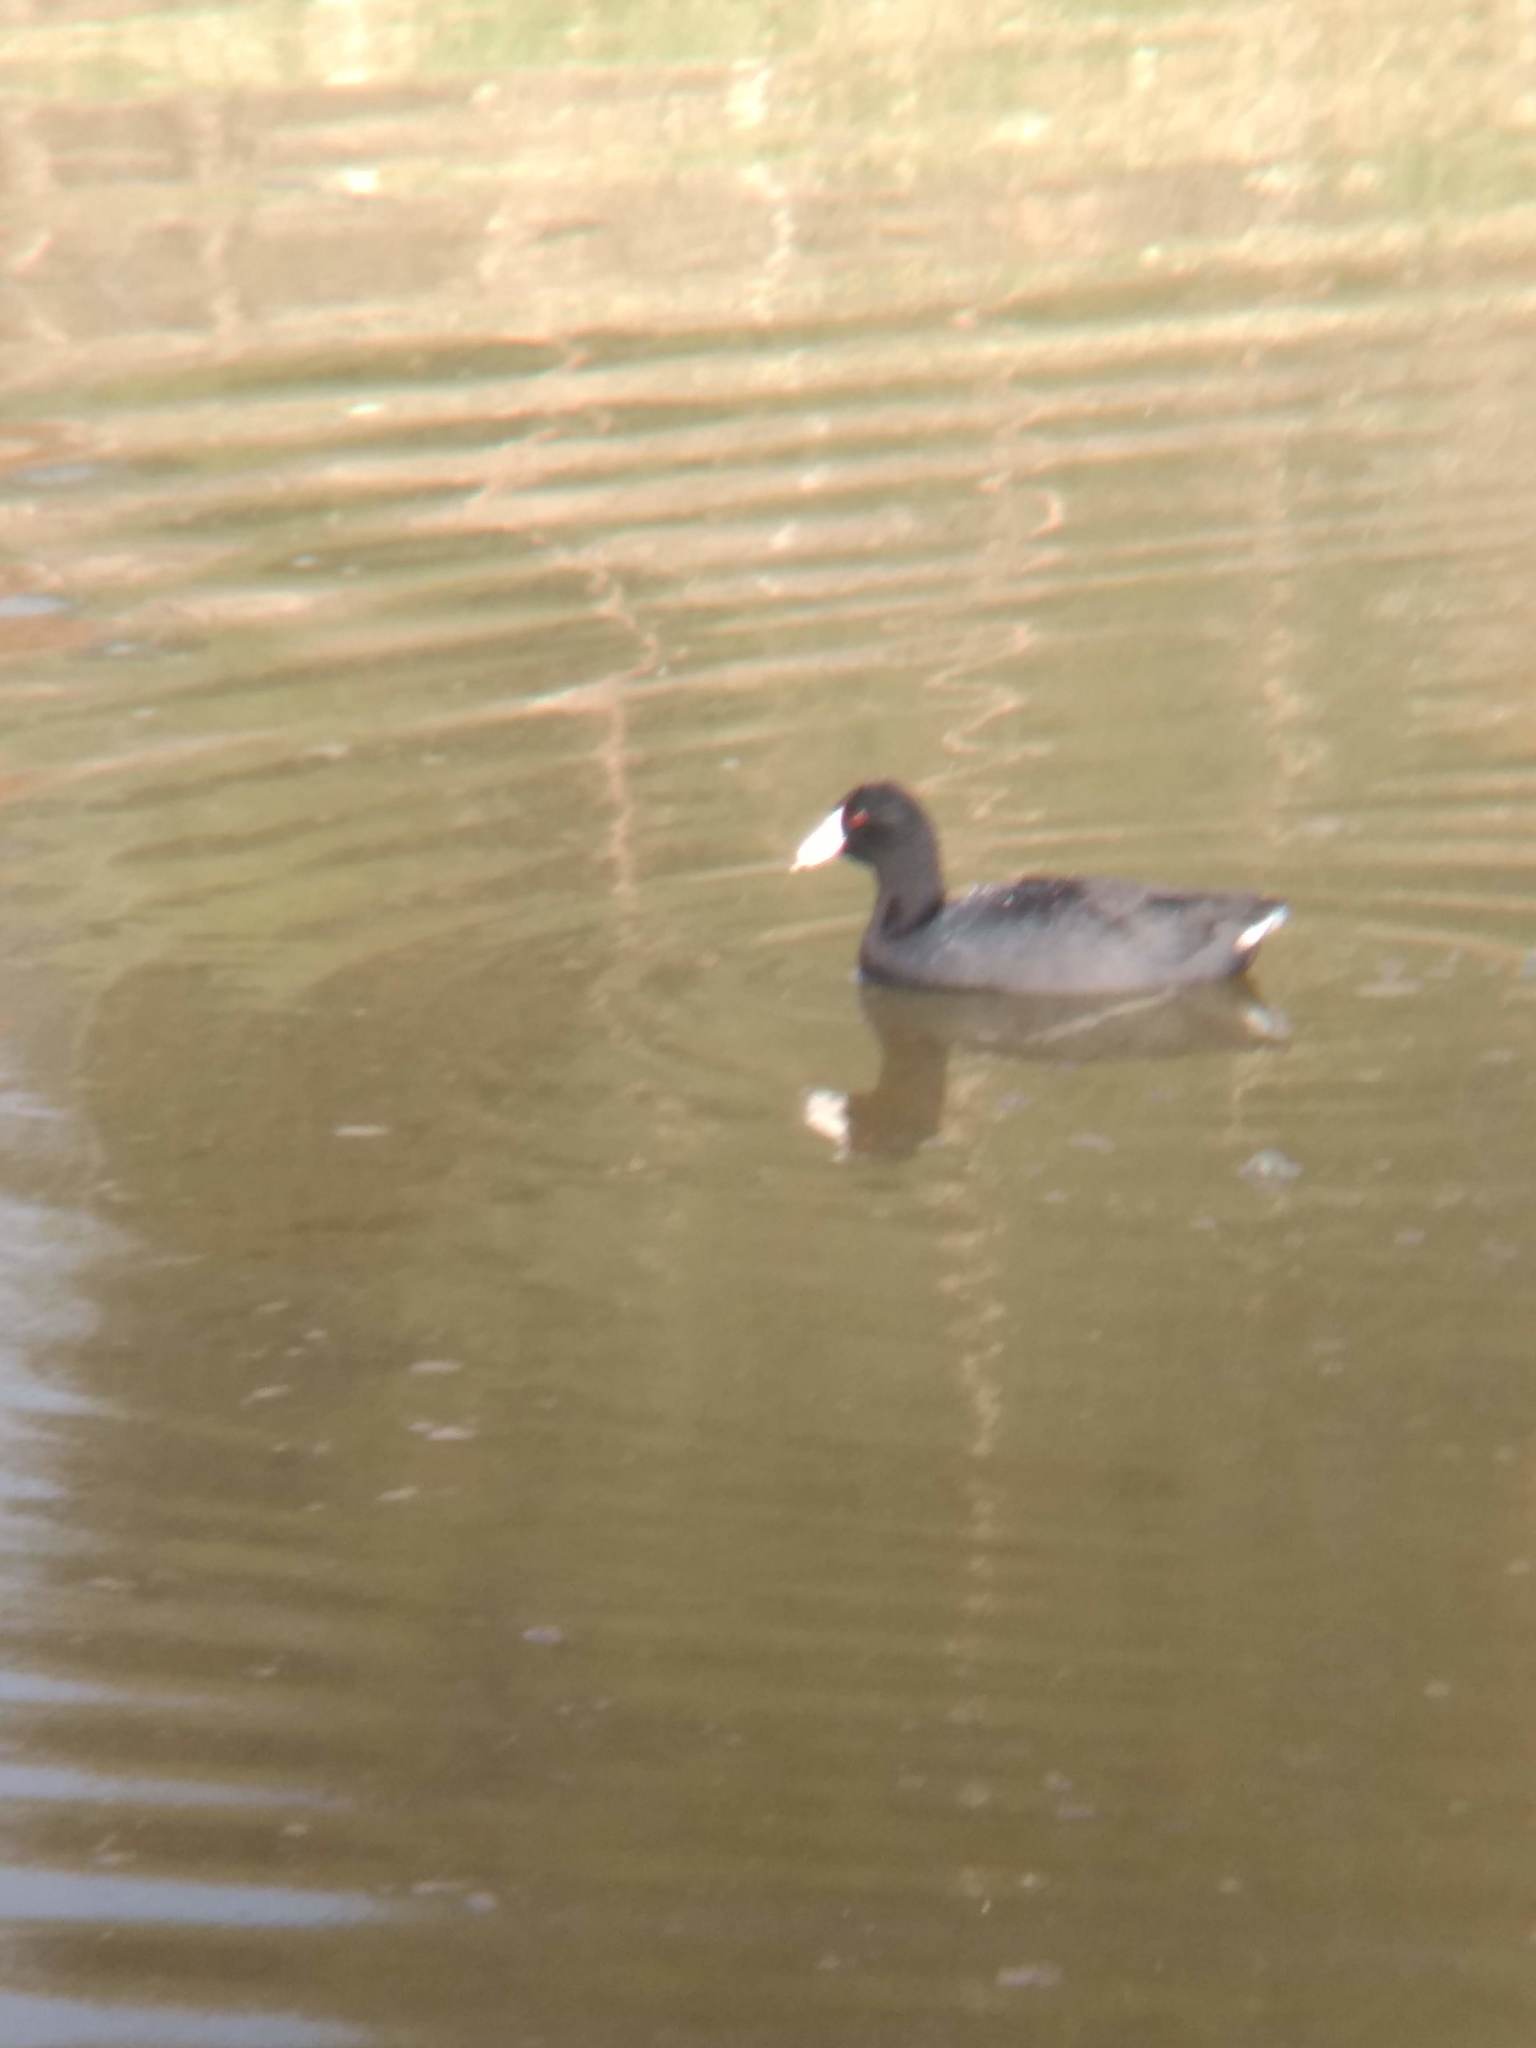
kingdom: Animalia
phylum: Chordata
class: Aves
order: Gruiformes
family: Rallidae
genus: Fulica
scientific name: Fulica americana
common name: American coot
